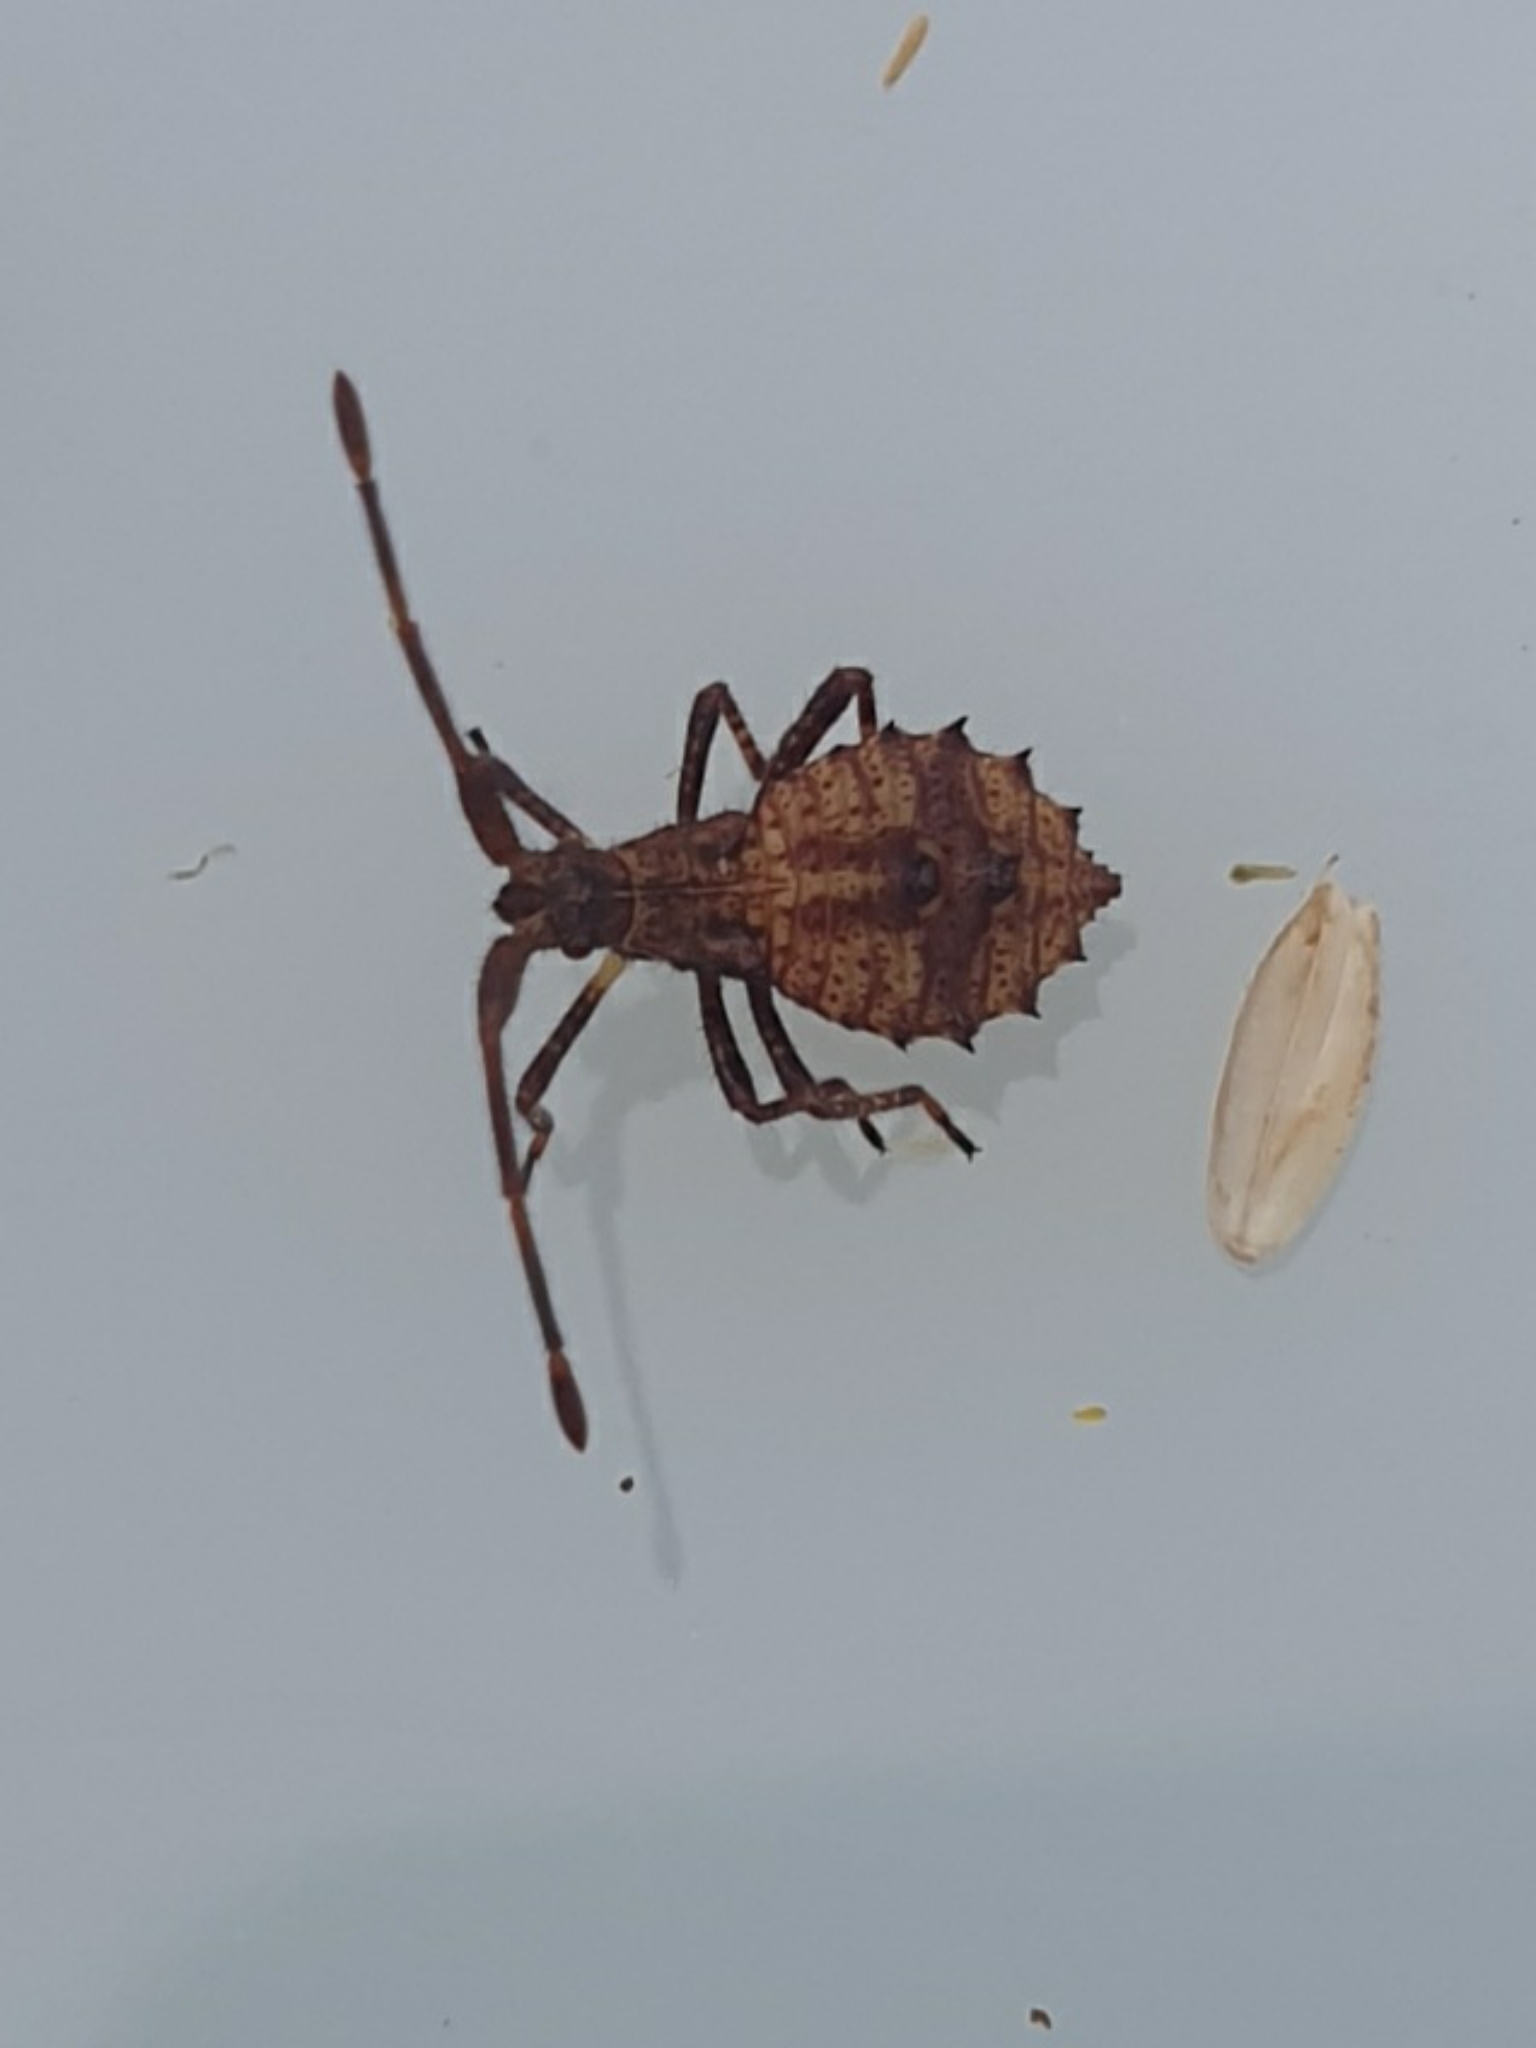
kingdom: Animalia
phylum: Arthropoda
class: Insecta
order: Hemiptera
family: Coreidae
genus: Coreus
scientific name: Coreus marginatus
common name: Dock bug
